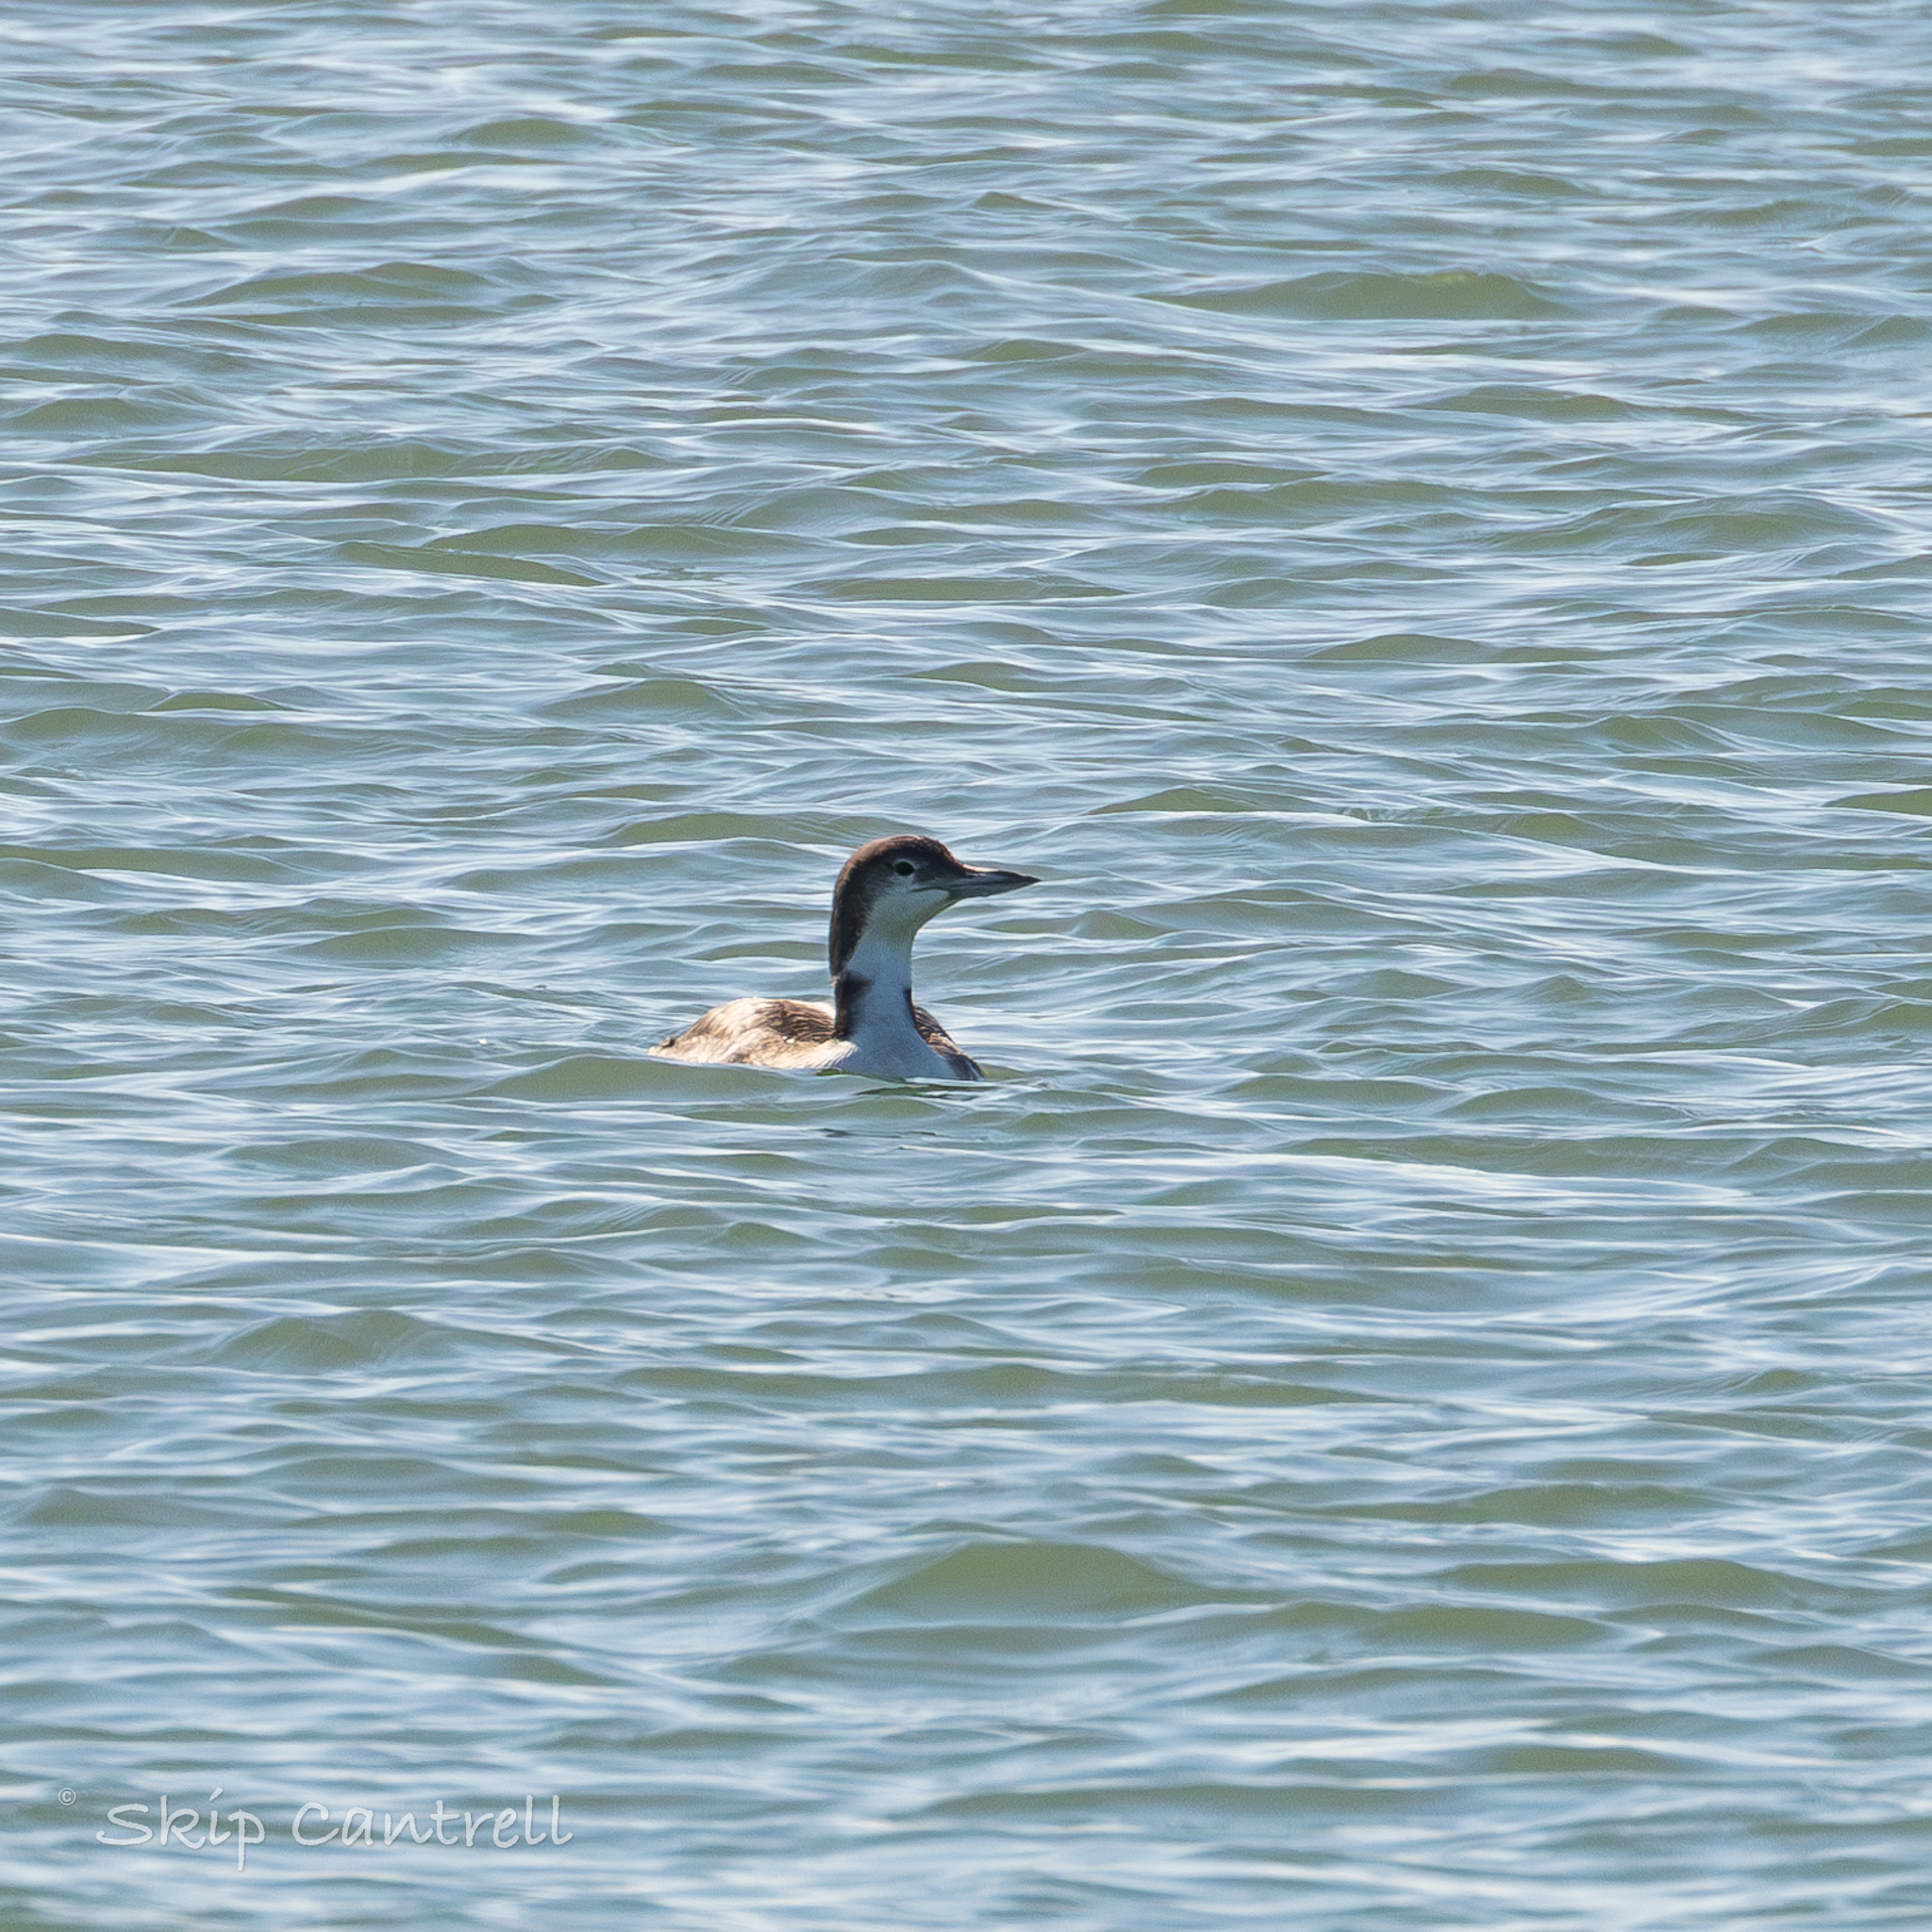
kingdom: Animalia
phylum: Chordata
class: Aves
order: Gaviiformes
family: Gaviidae
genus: Gavia
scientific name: Gavia immer
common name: Common loon
